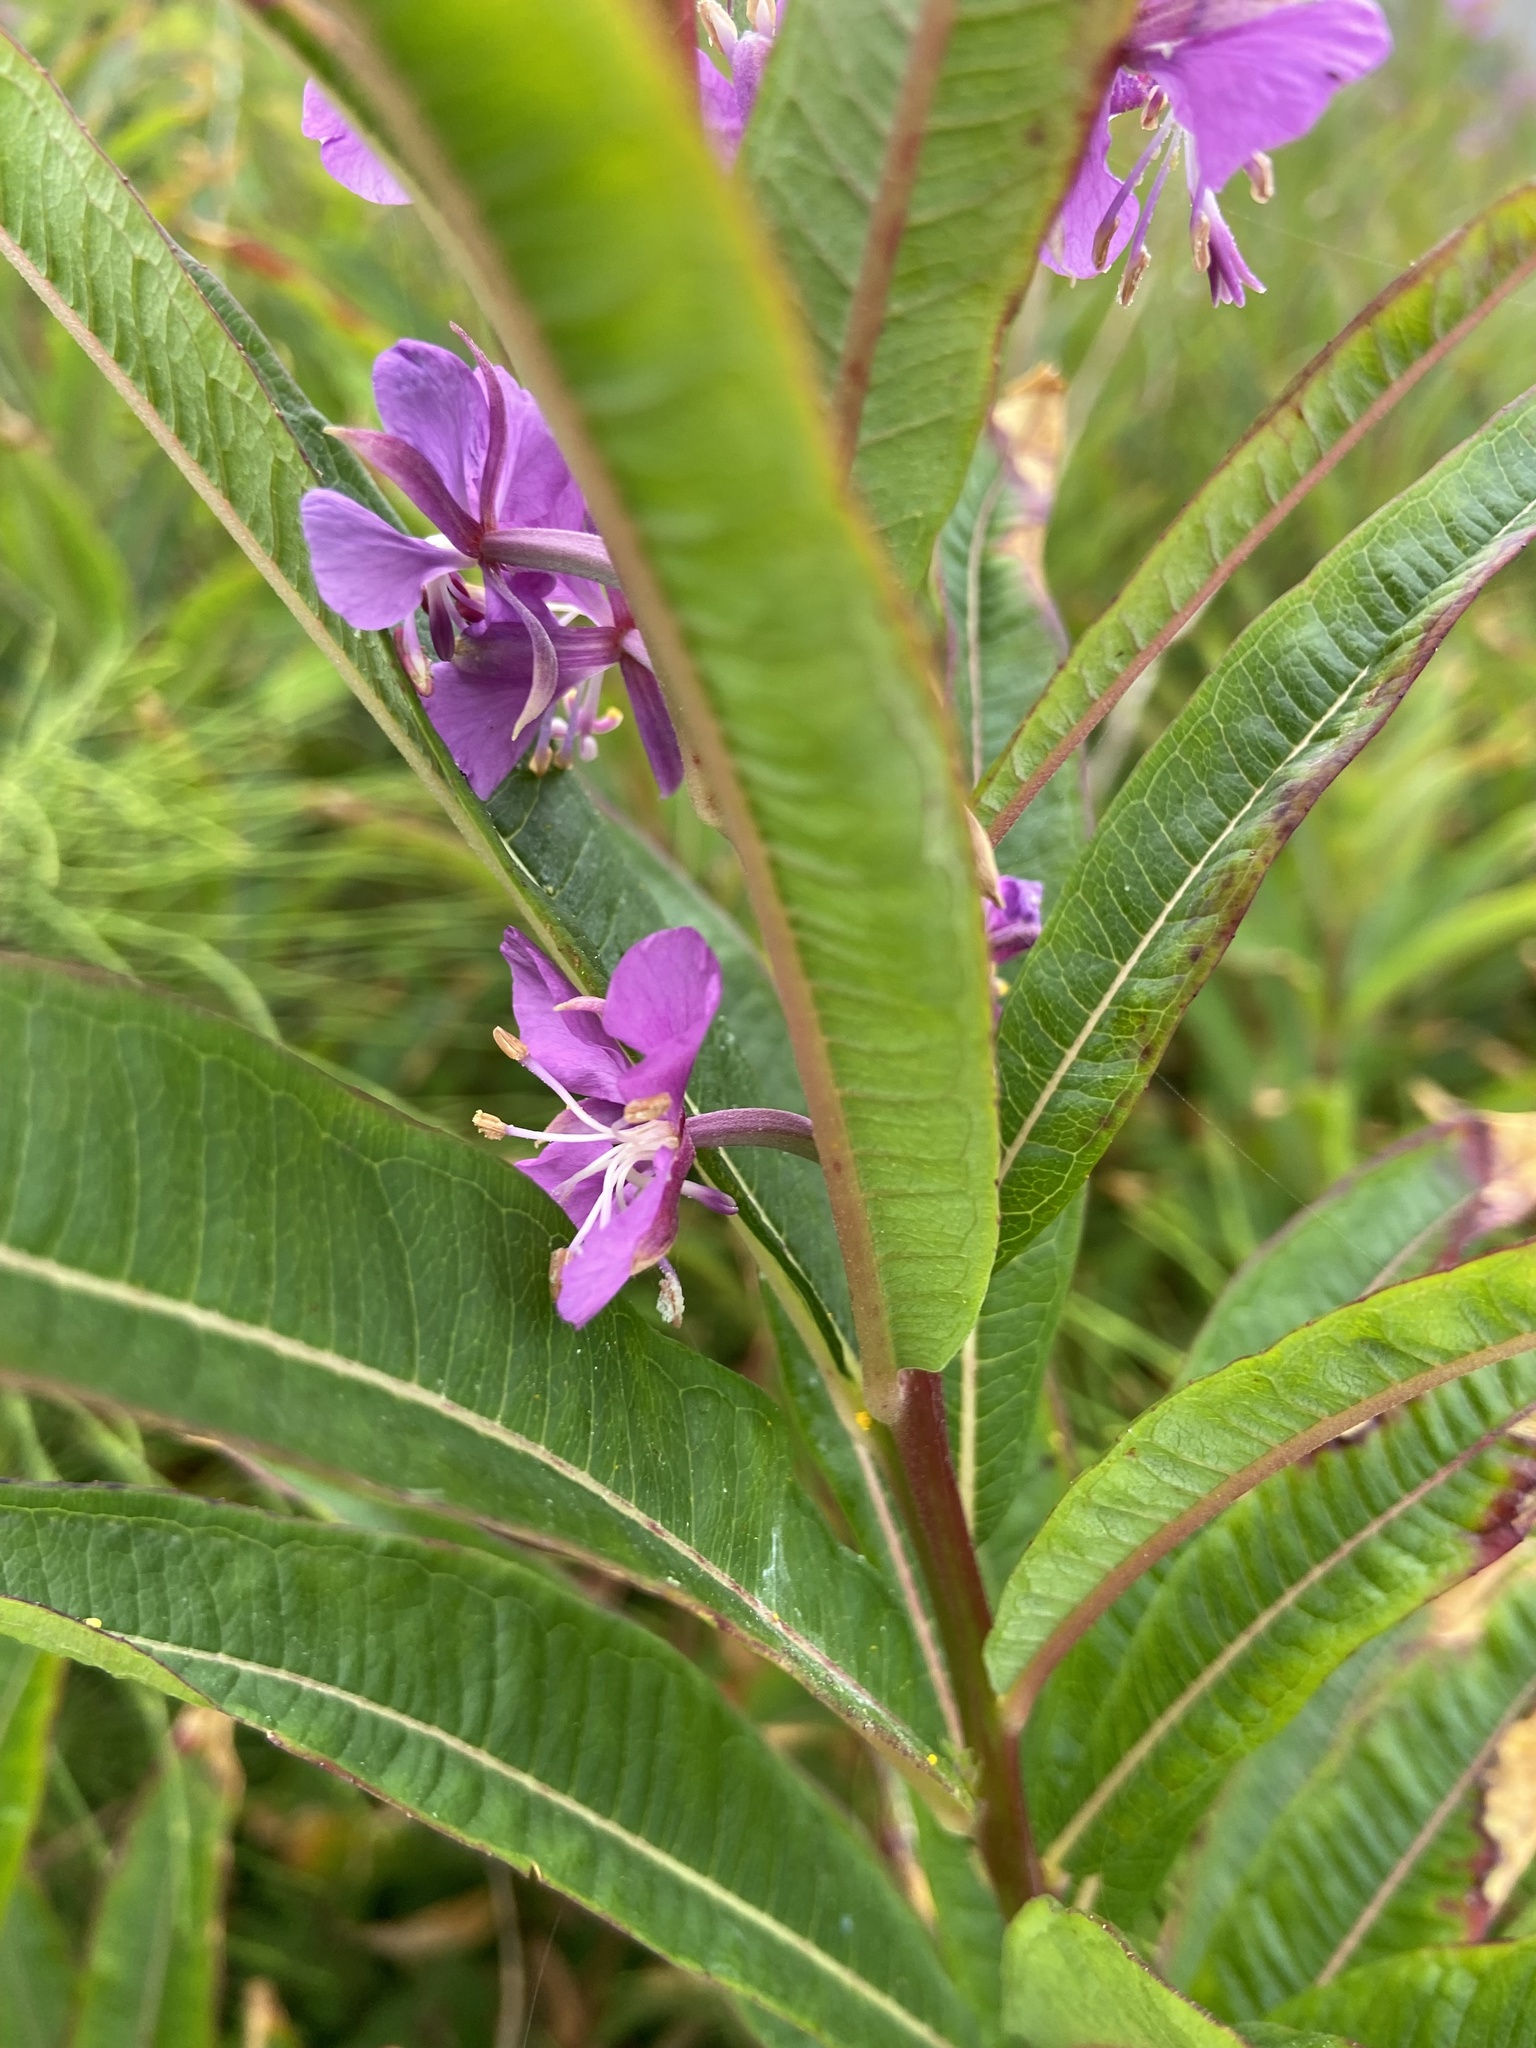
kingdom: Plantae
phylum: Tracheophyta
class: Magnoliopsida
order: Myrtales
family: Onagraceae
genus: Chamaenerion
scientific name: Chamaenerion angustifolium
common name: Fireweed
